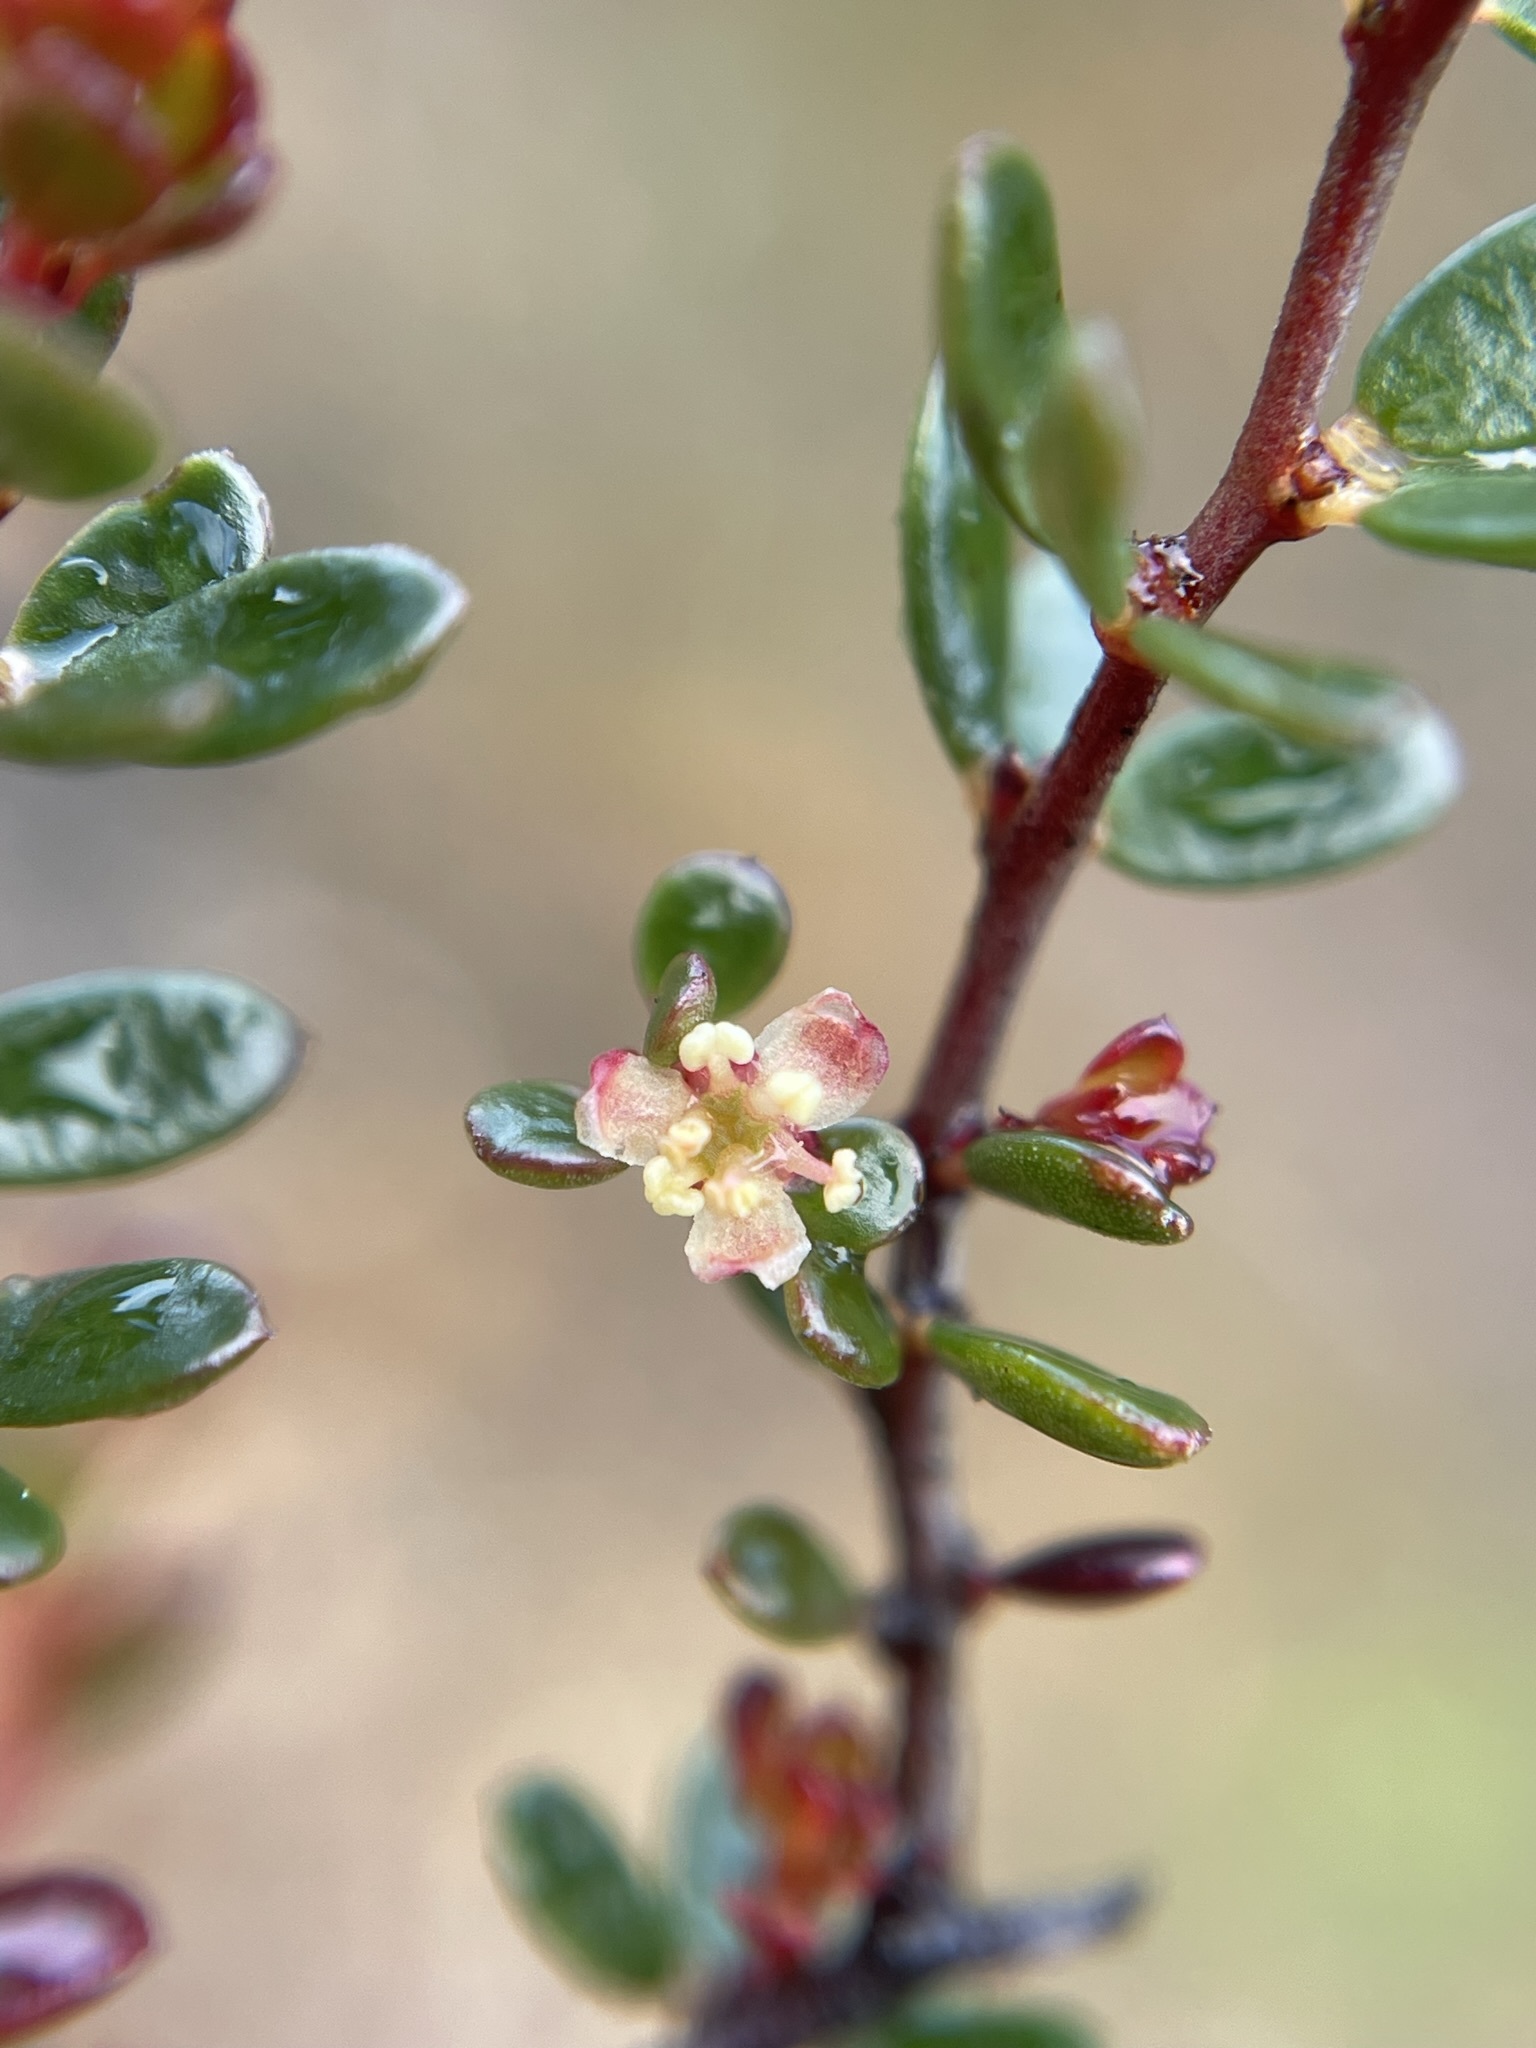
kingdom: Plantae
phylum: Tracheophyta
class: Magnoliopsida
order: Malpighiales
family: Picrodendraceae
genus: Micrantheum
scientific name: Micrantheum serpentinum
